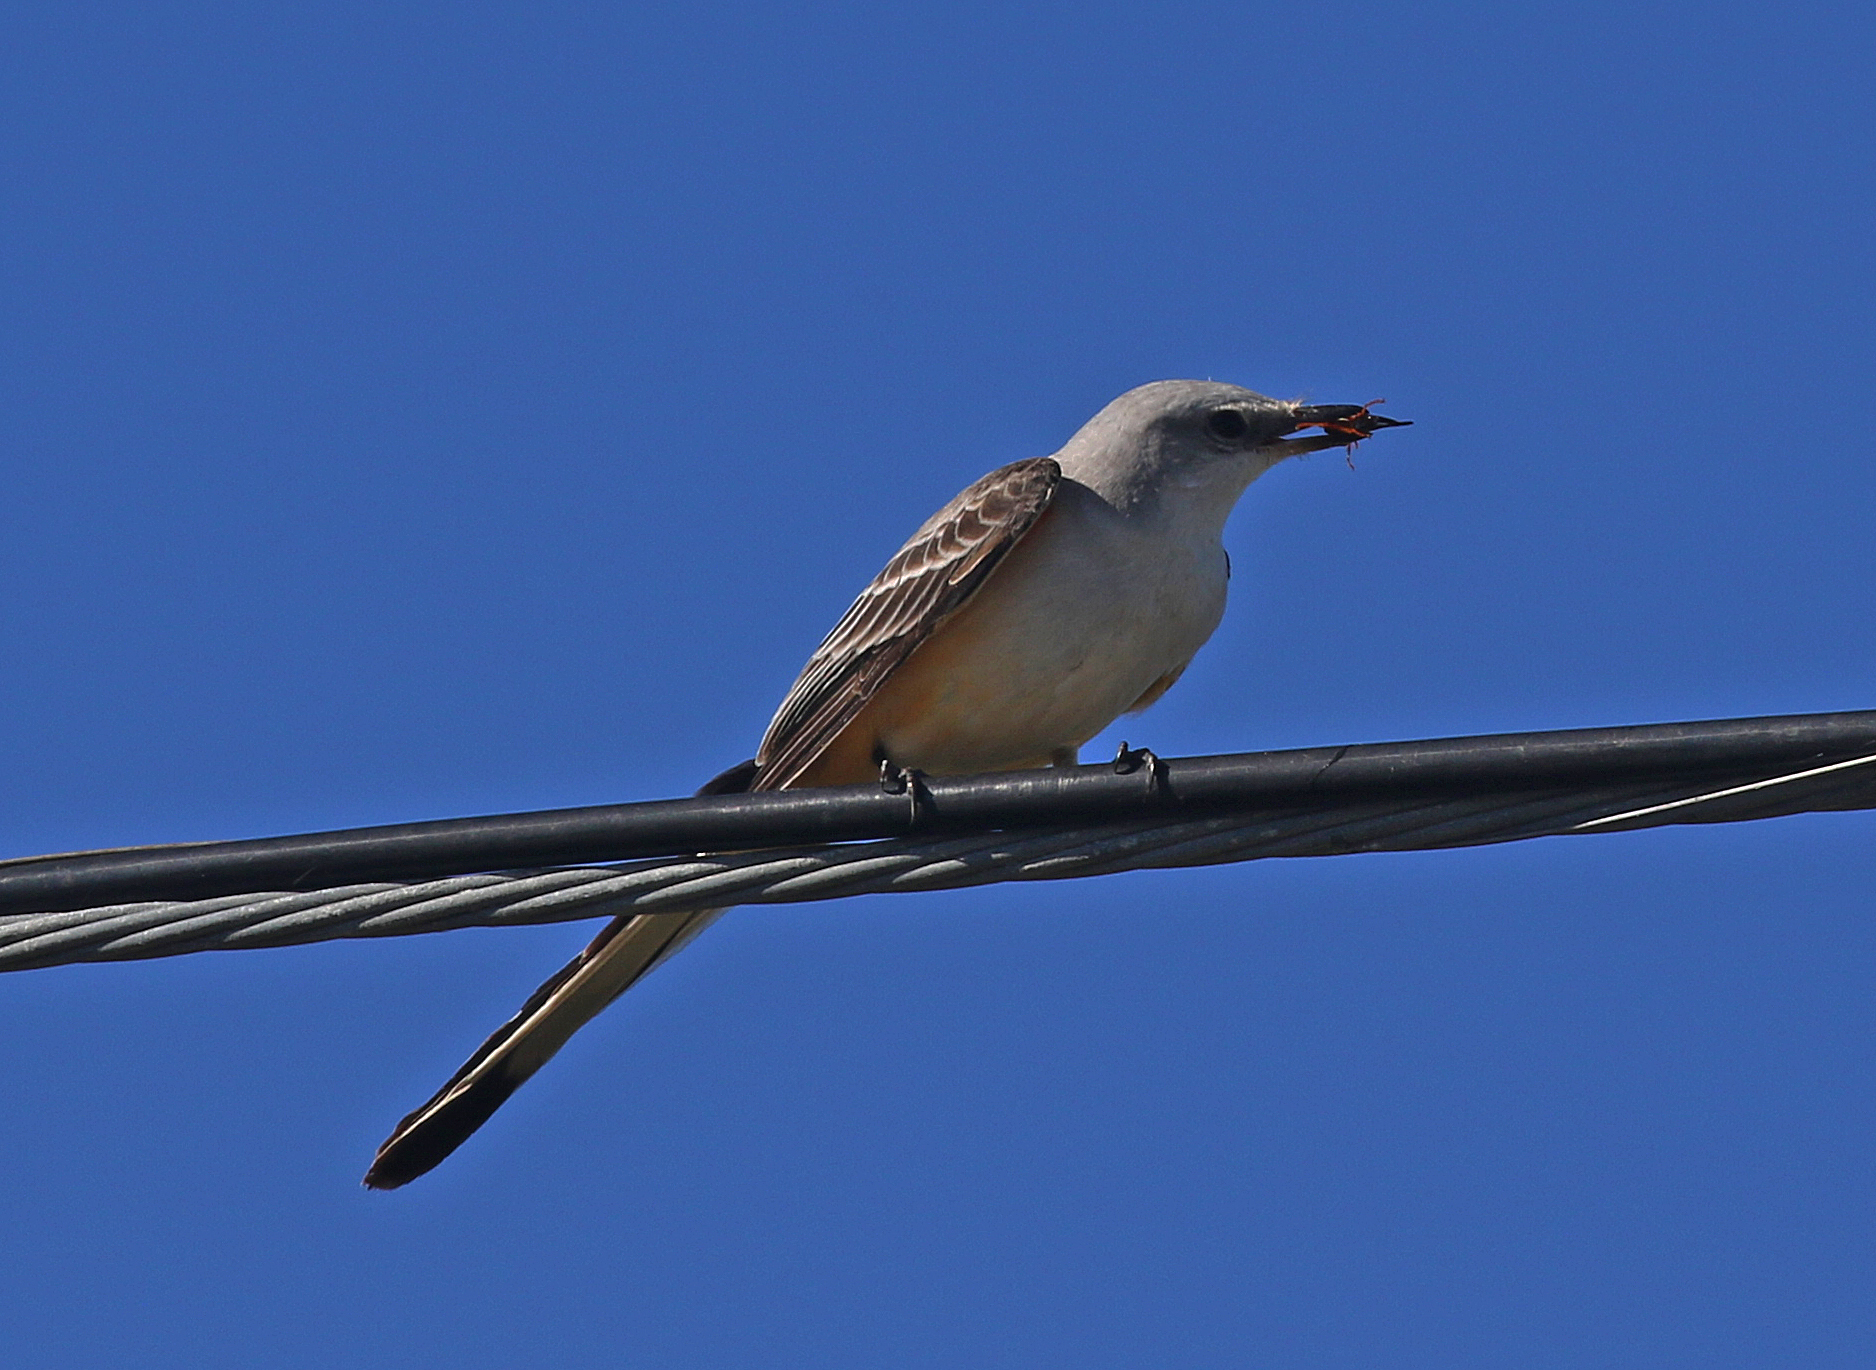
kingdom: Animalia
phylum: Chordata
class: Aves
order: Passeriformes
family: Tyrannidae
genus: Tyrannus
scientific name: Tyrannus forficatus
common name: Scissor-tailed flycatcher
